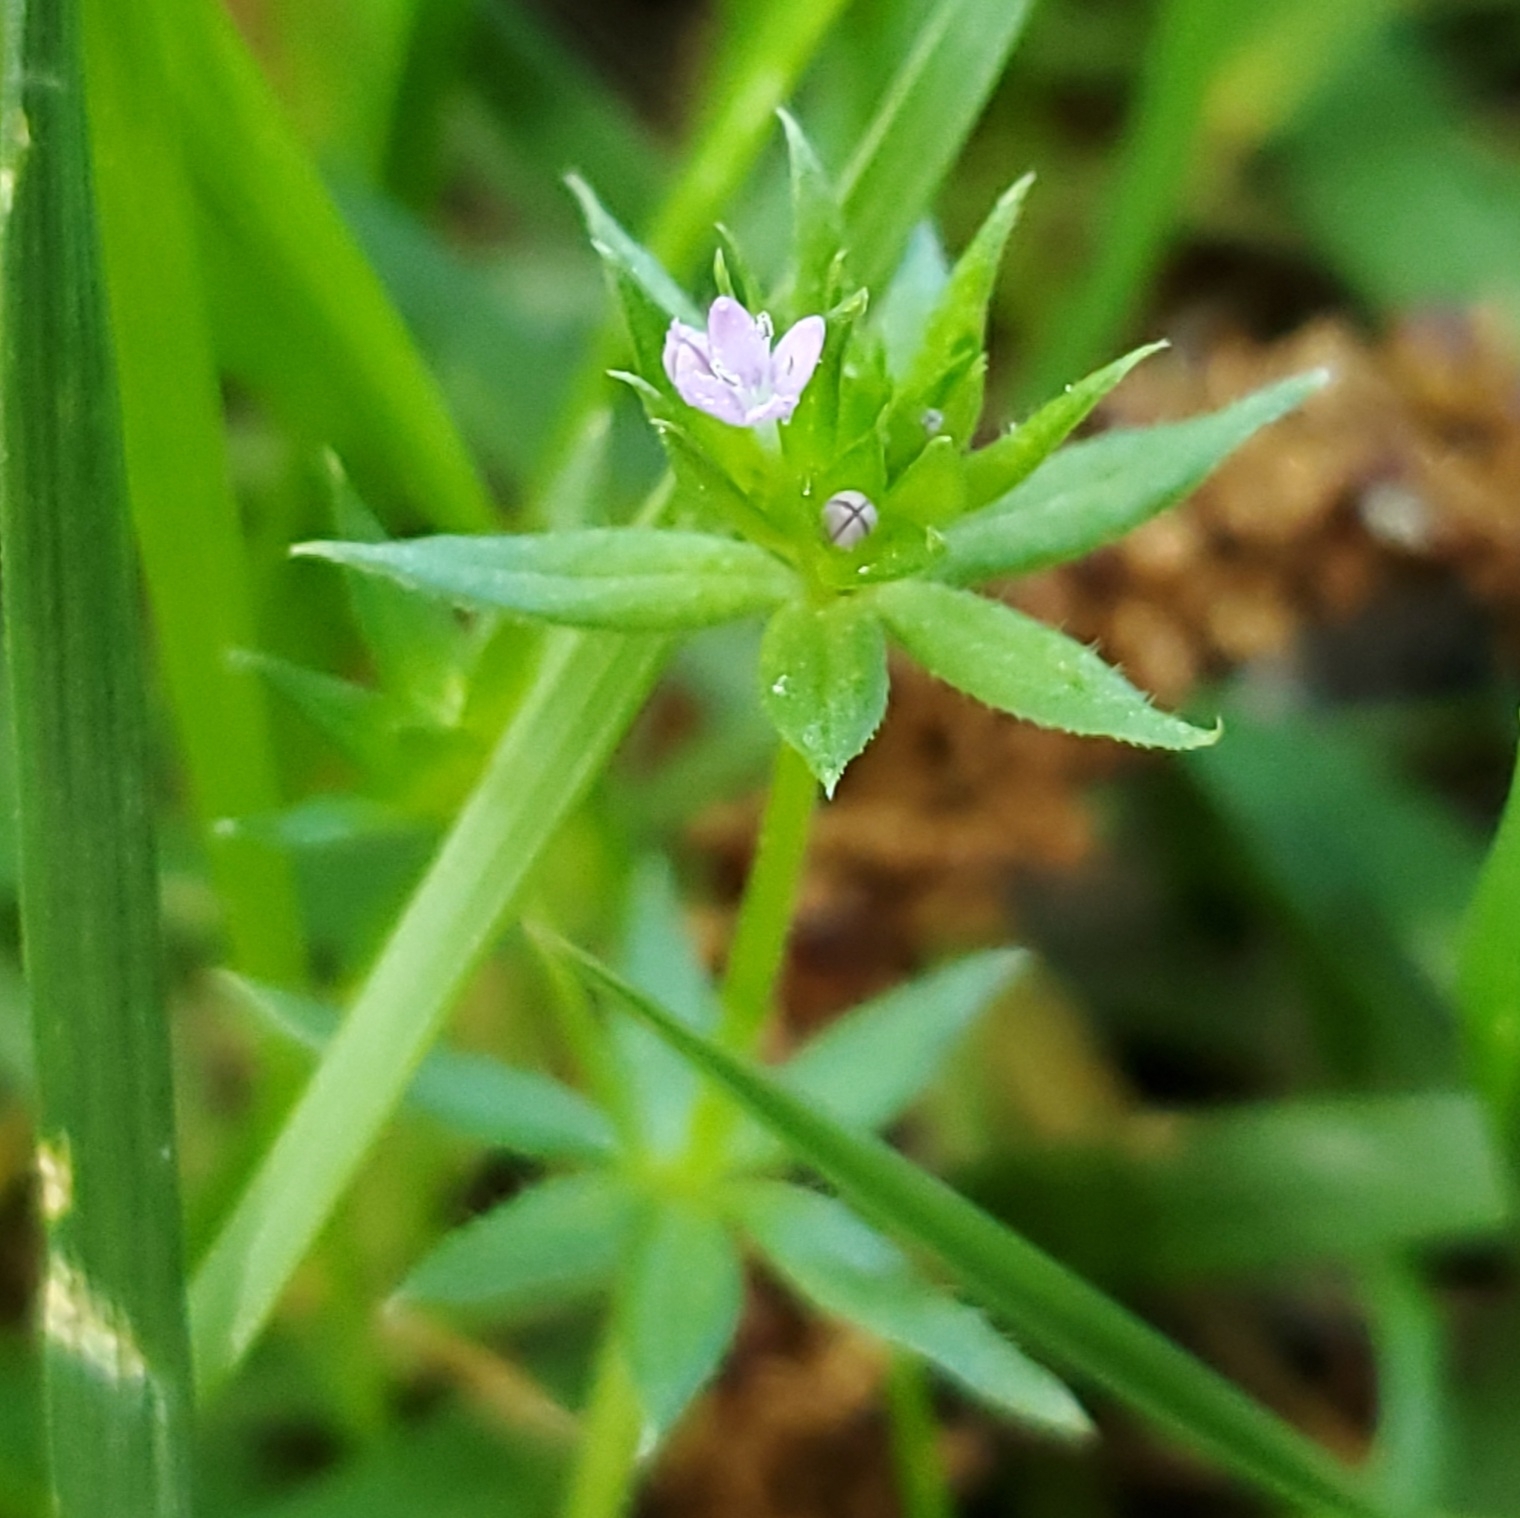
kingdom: Plantae
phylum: Tracheophyta
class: Magnoliopsida
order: Gentianales
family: Rubiaceae
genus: Sherardia
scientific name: Sherardia arvensis
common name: Field madder
